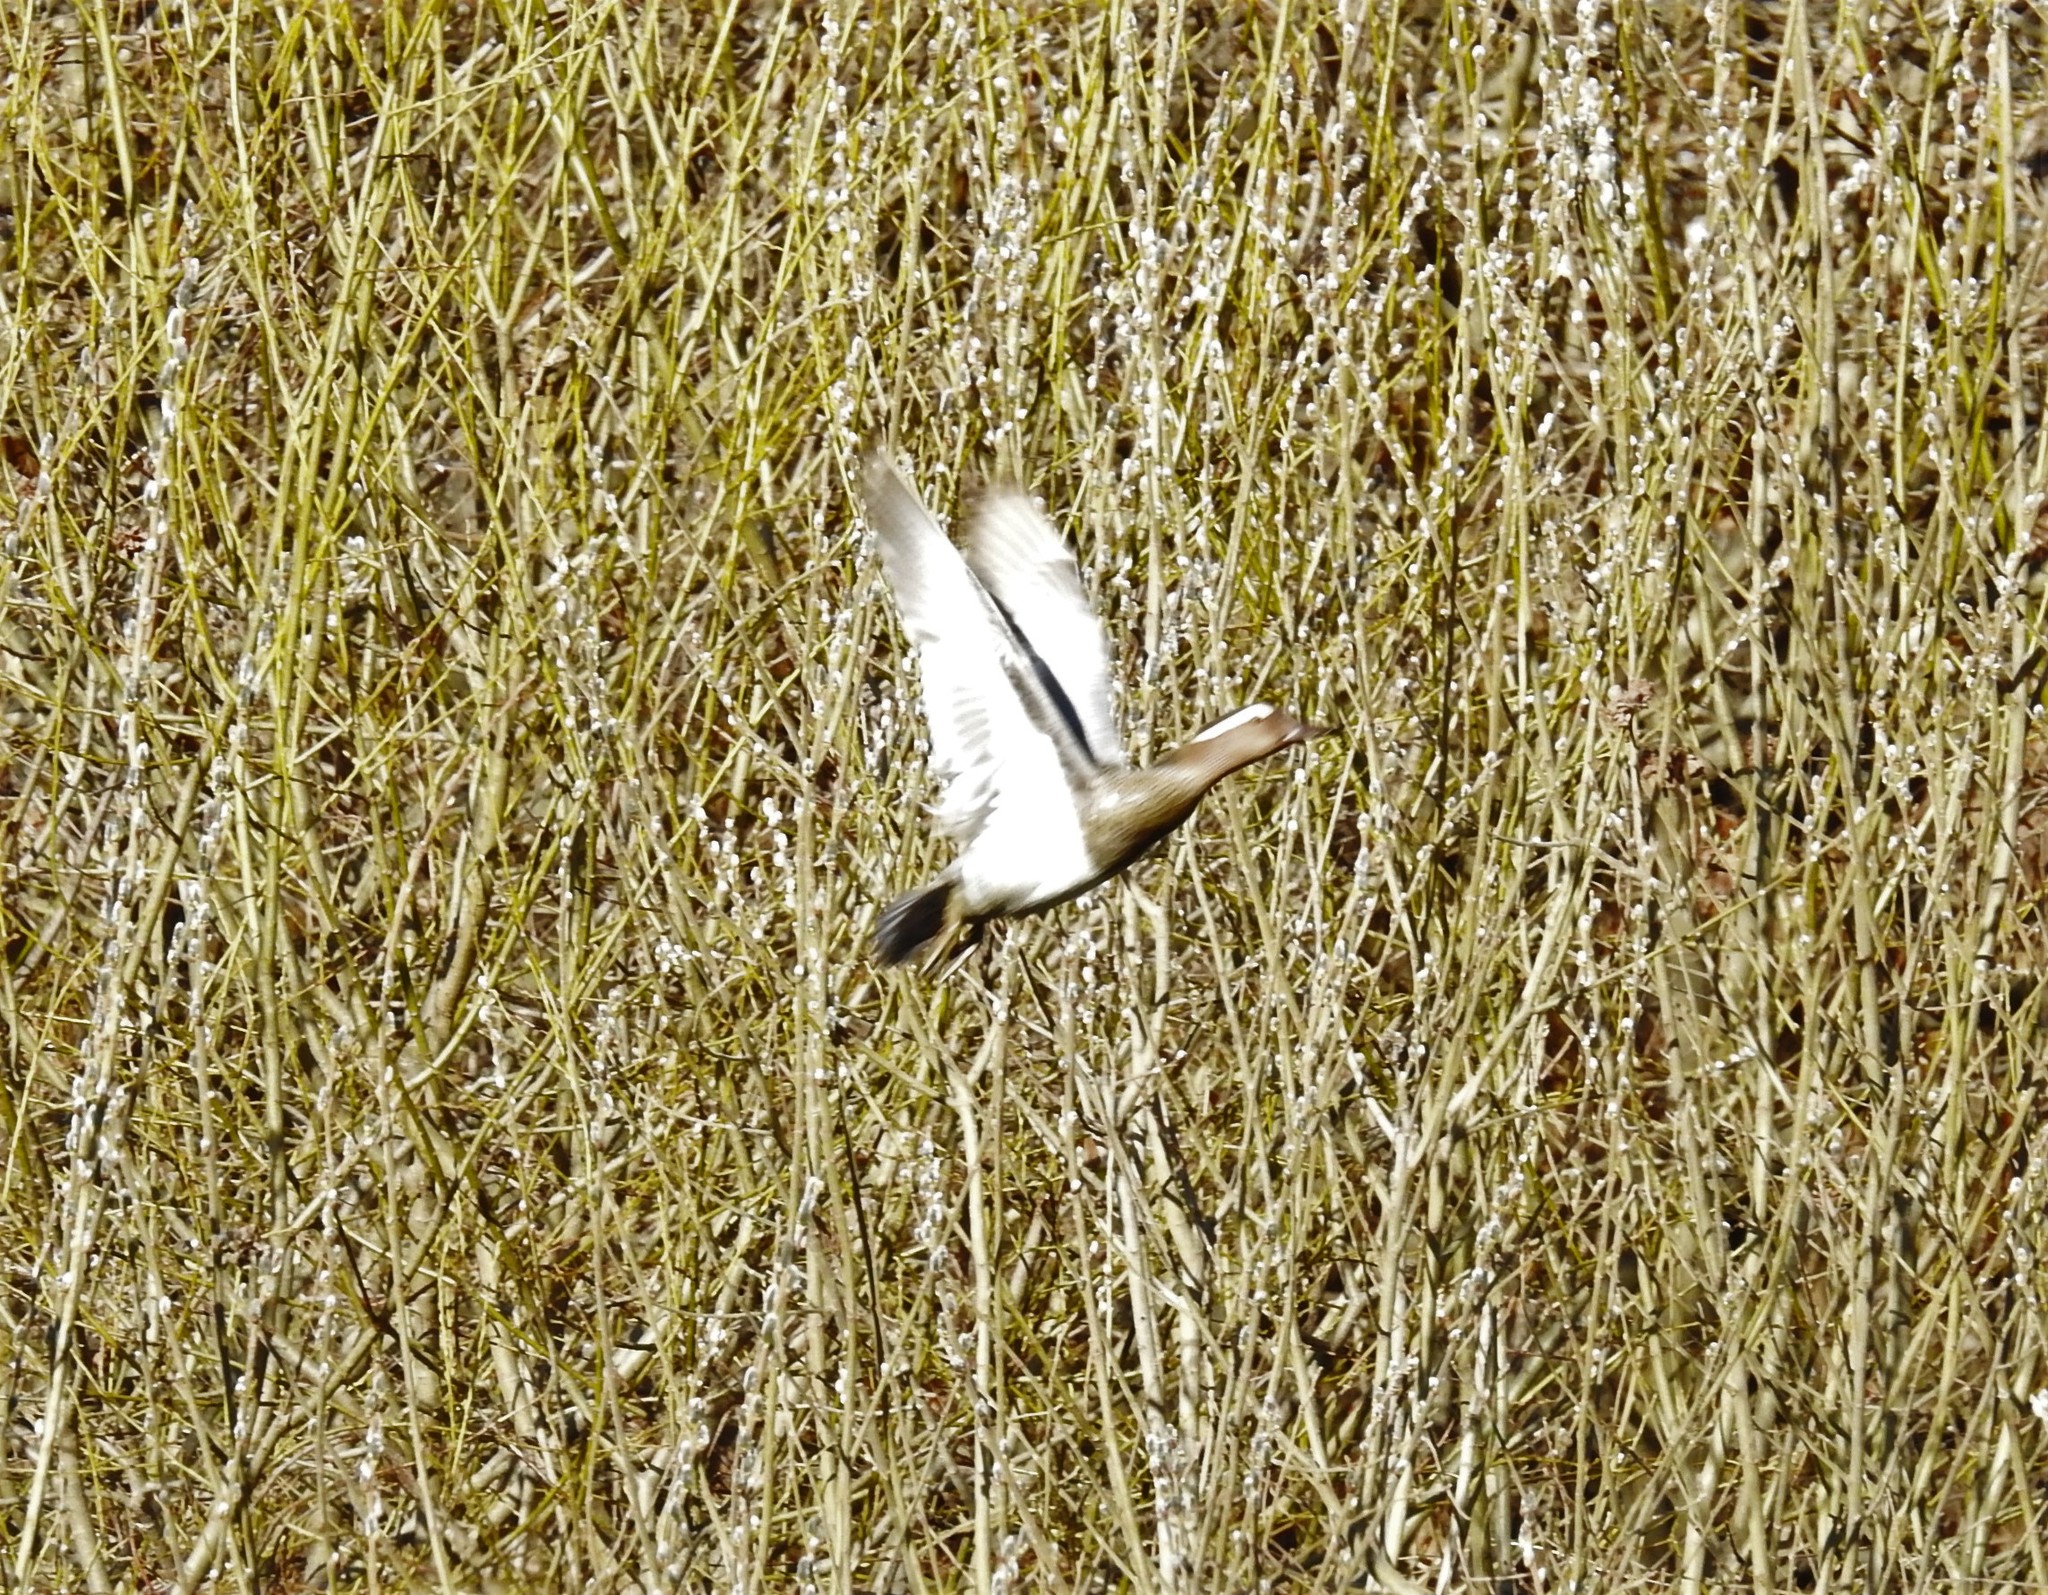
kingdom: Animalia
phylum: Chordata
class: Aves
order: Anseriformes
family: Anatidae
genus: Spatula
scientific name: Spatula querquedula
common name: Garganey
